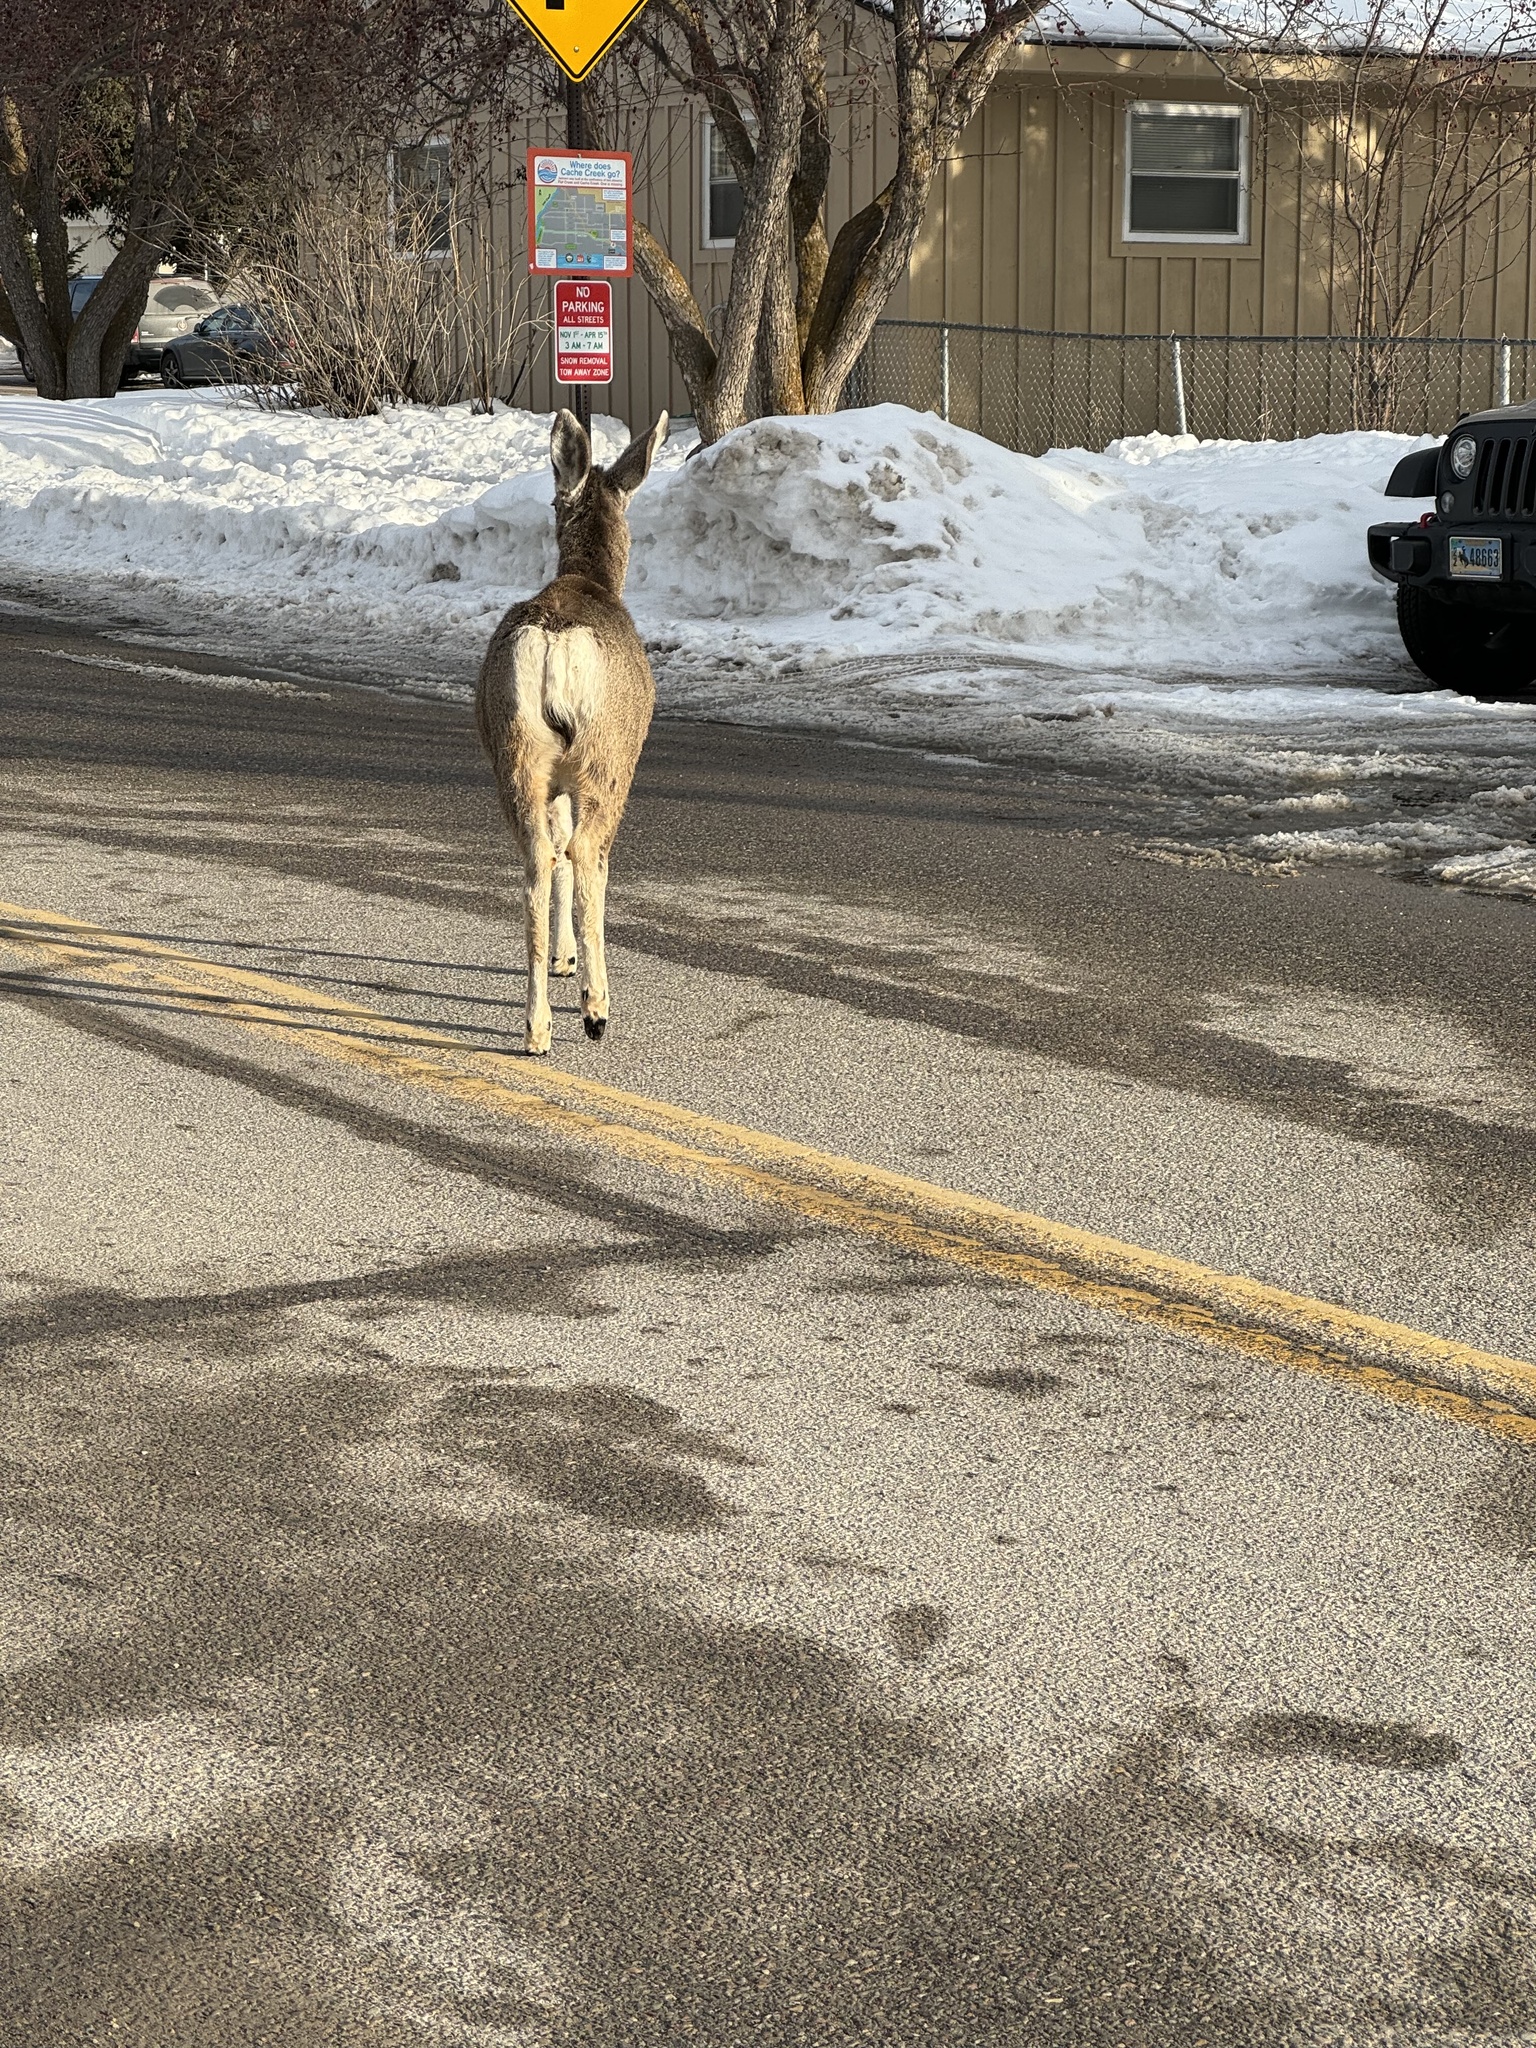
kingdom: Animalia
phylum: Chordata
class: Mammalia
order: Artiodactyla
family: Cervidae
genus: Odocoileus
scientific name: Odocoileus hemionus
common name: Mule deer
